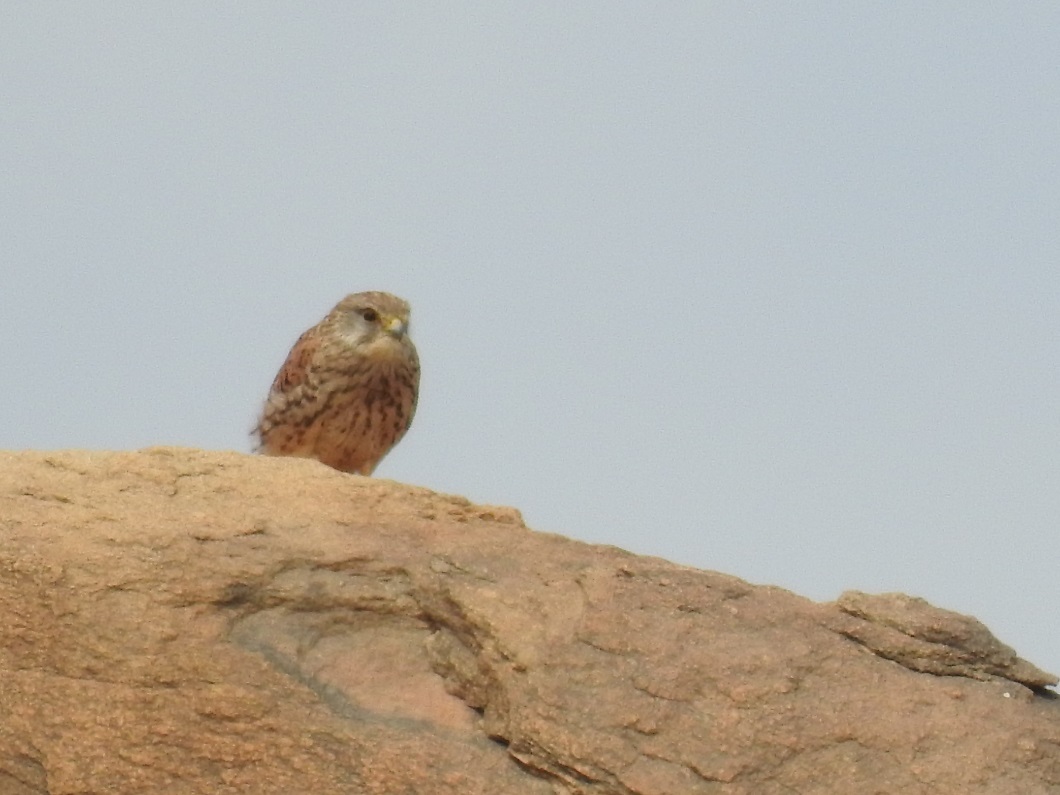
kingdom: Animalia
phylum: Chordata
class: Aves
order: Falconiformes
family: Falconidae
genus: Falco
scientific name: Falco tinnunculus
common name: Common kestrel
